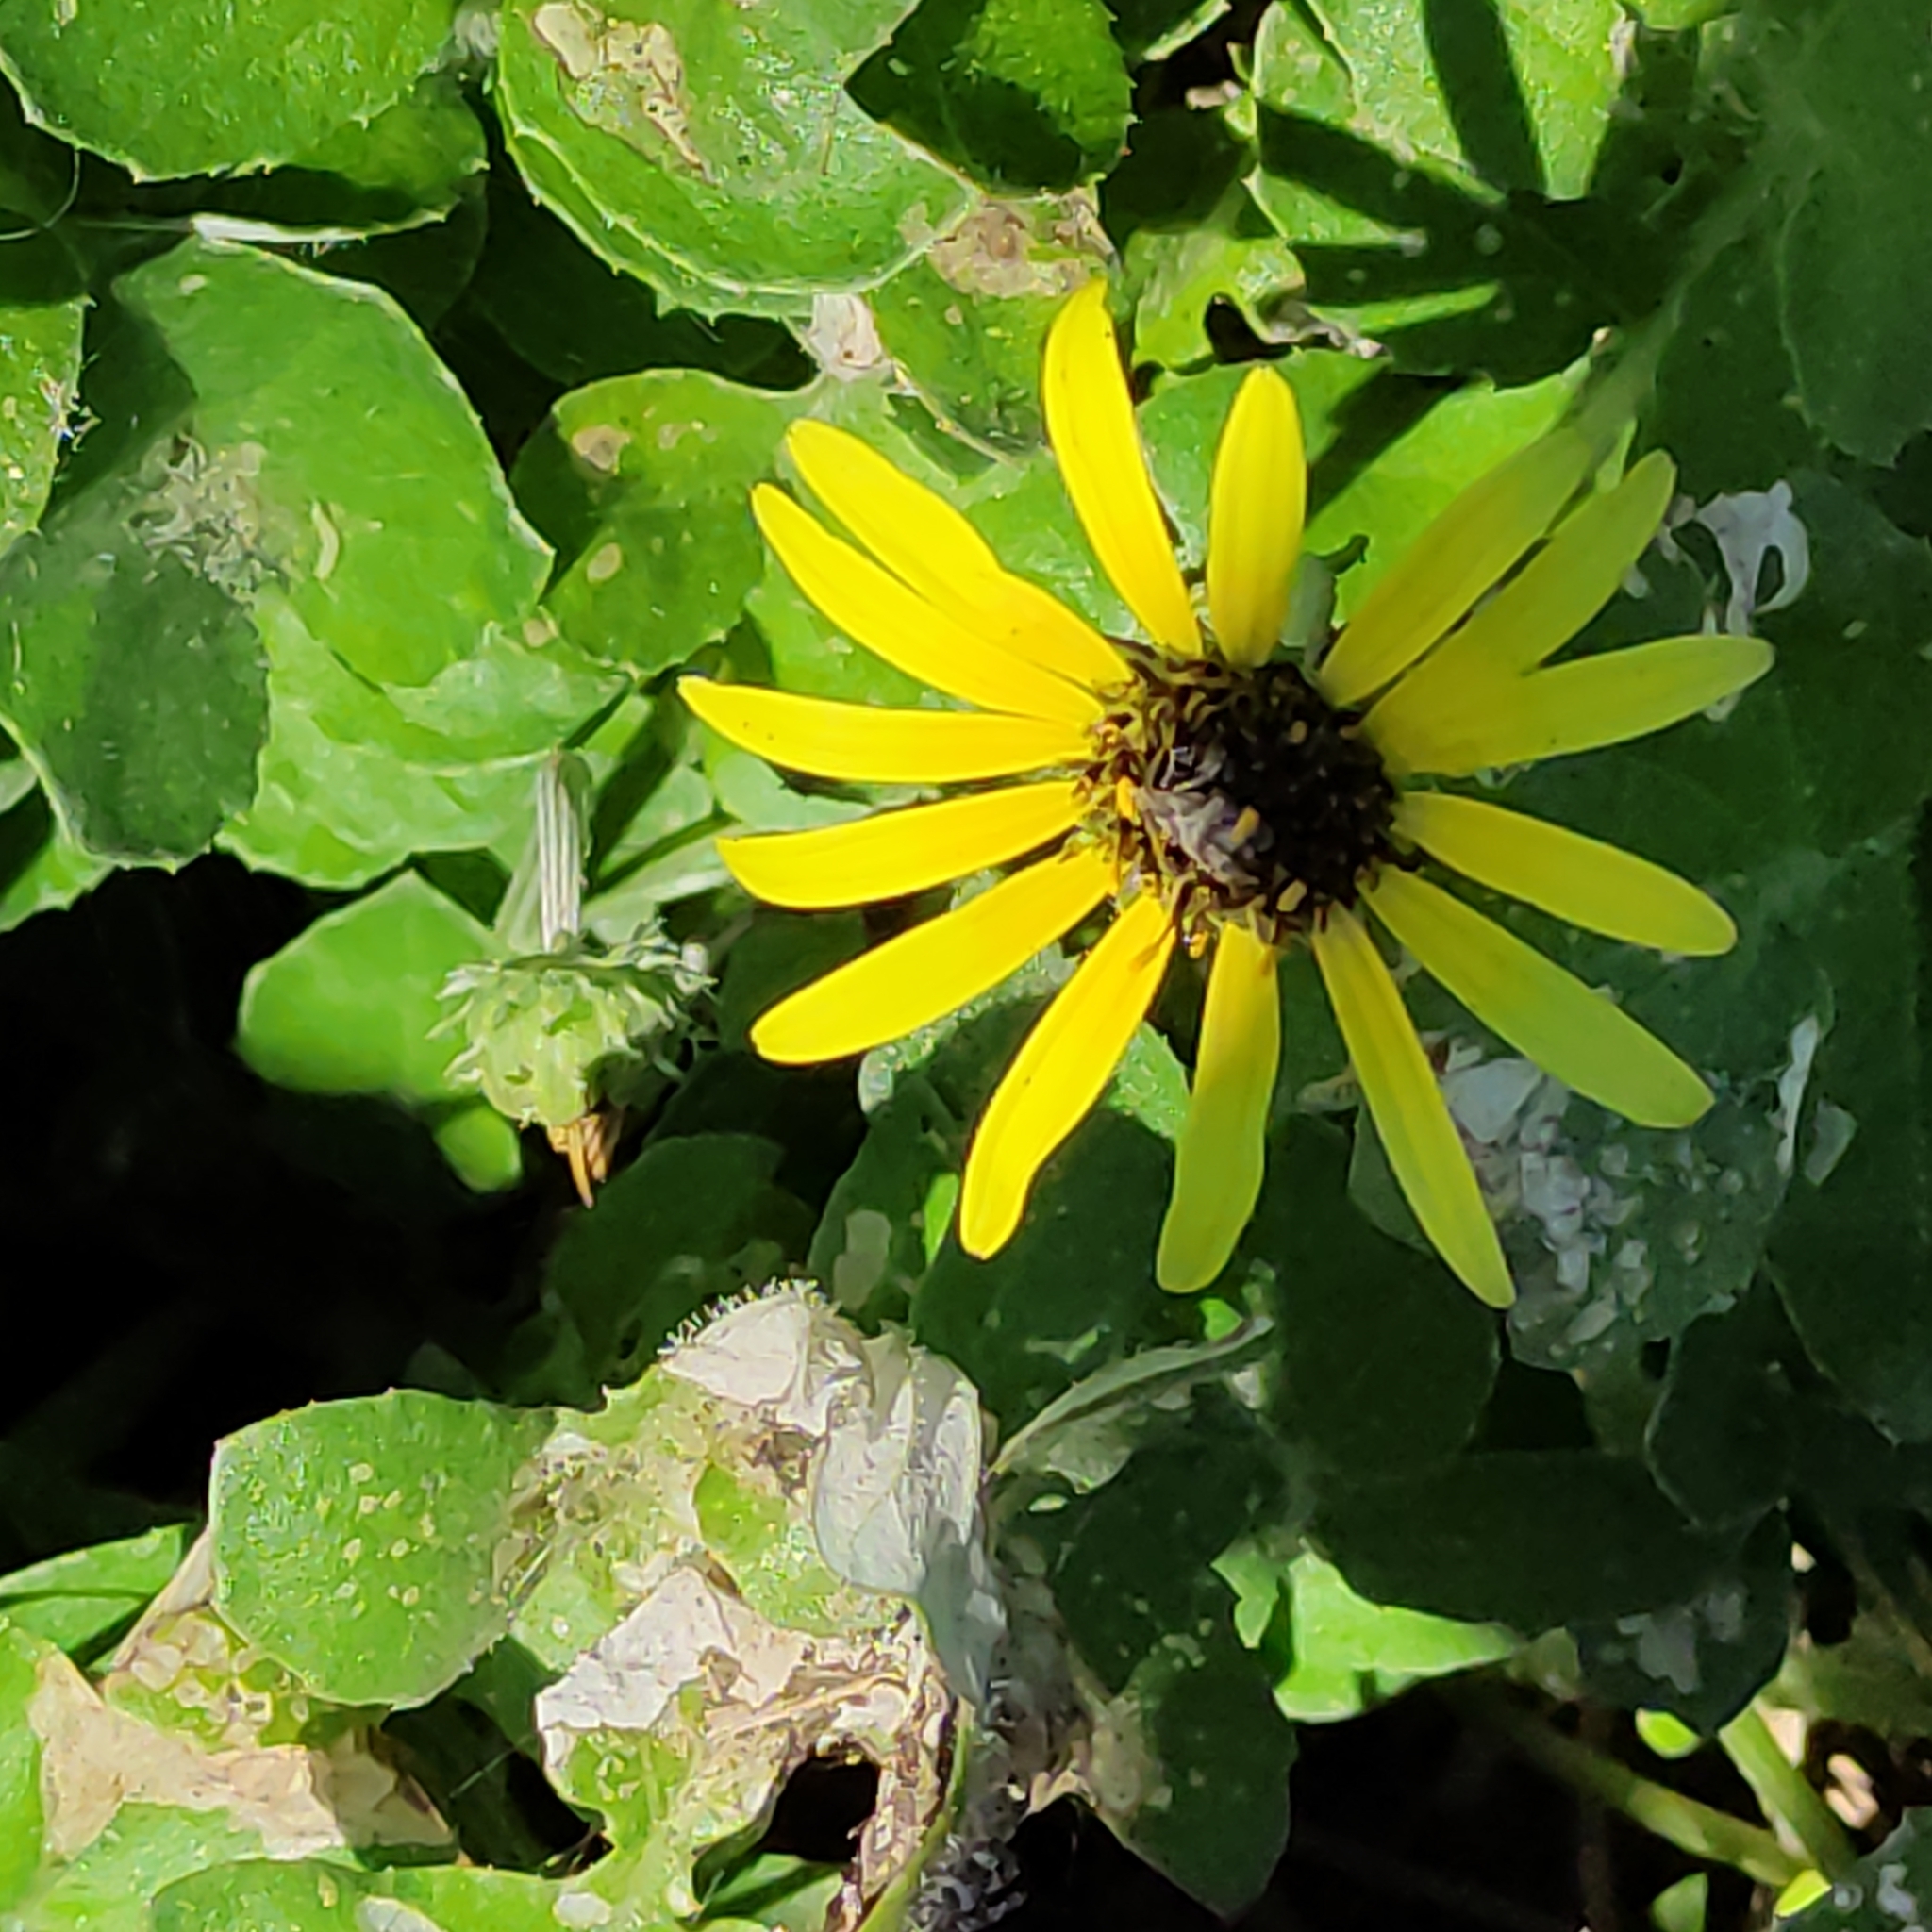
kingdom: Plantae
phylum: Tracheophyta
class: Magnoliopsida
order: Asterales
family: Asteraceae
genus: Arctotheca
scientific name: Arctotheca calendula
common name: Capeweed
